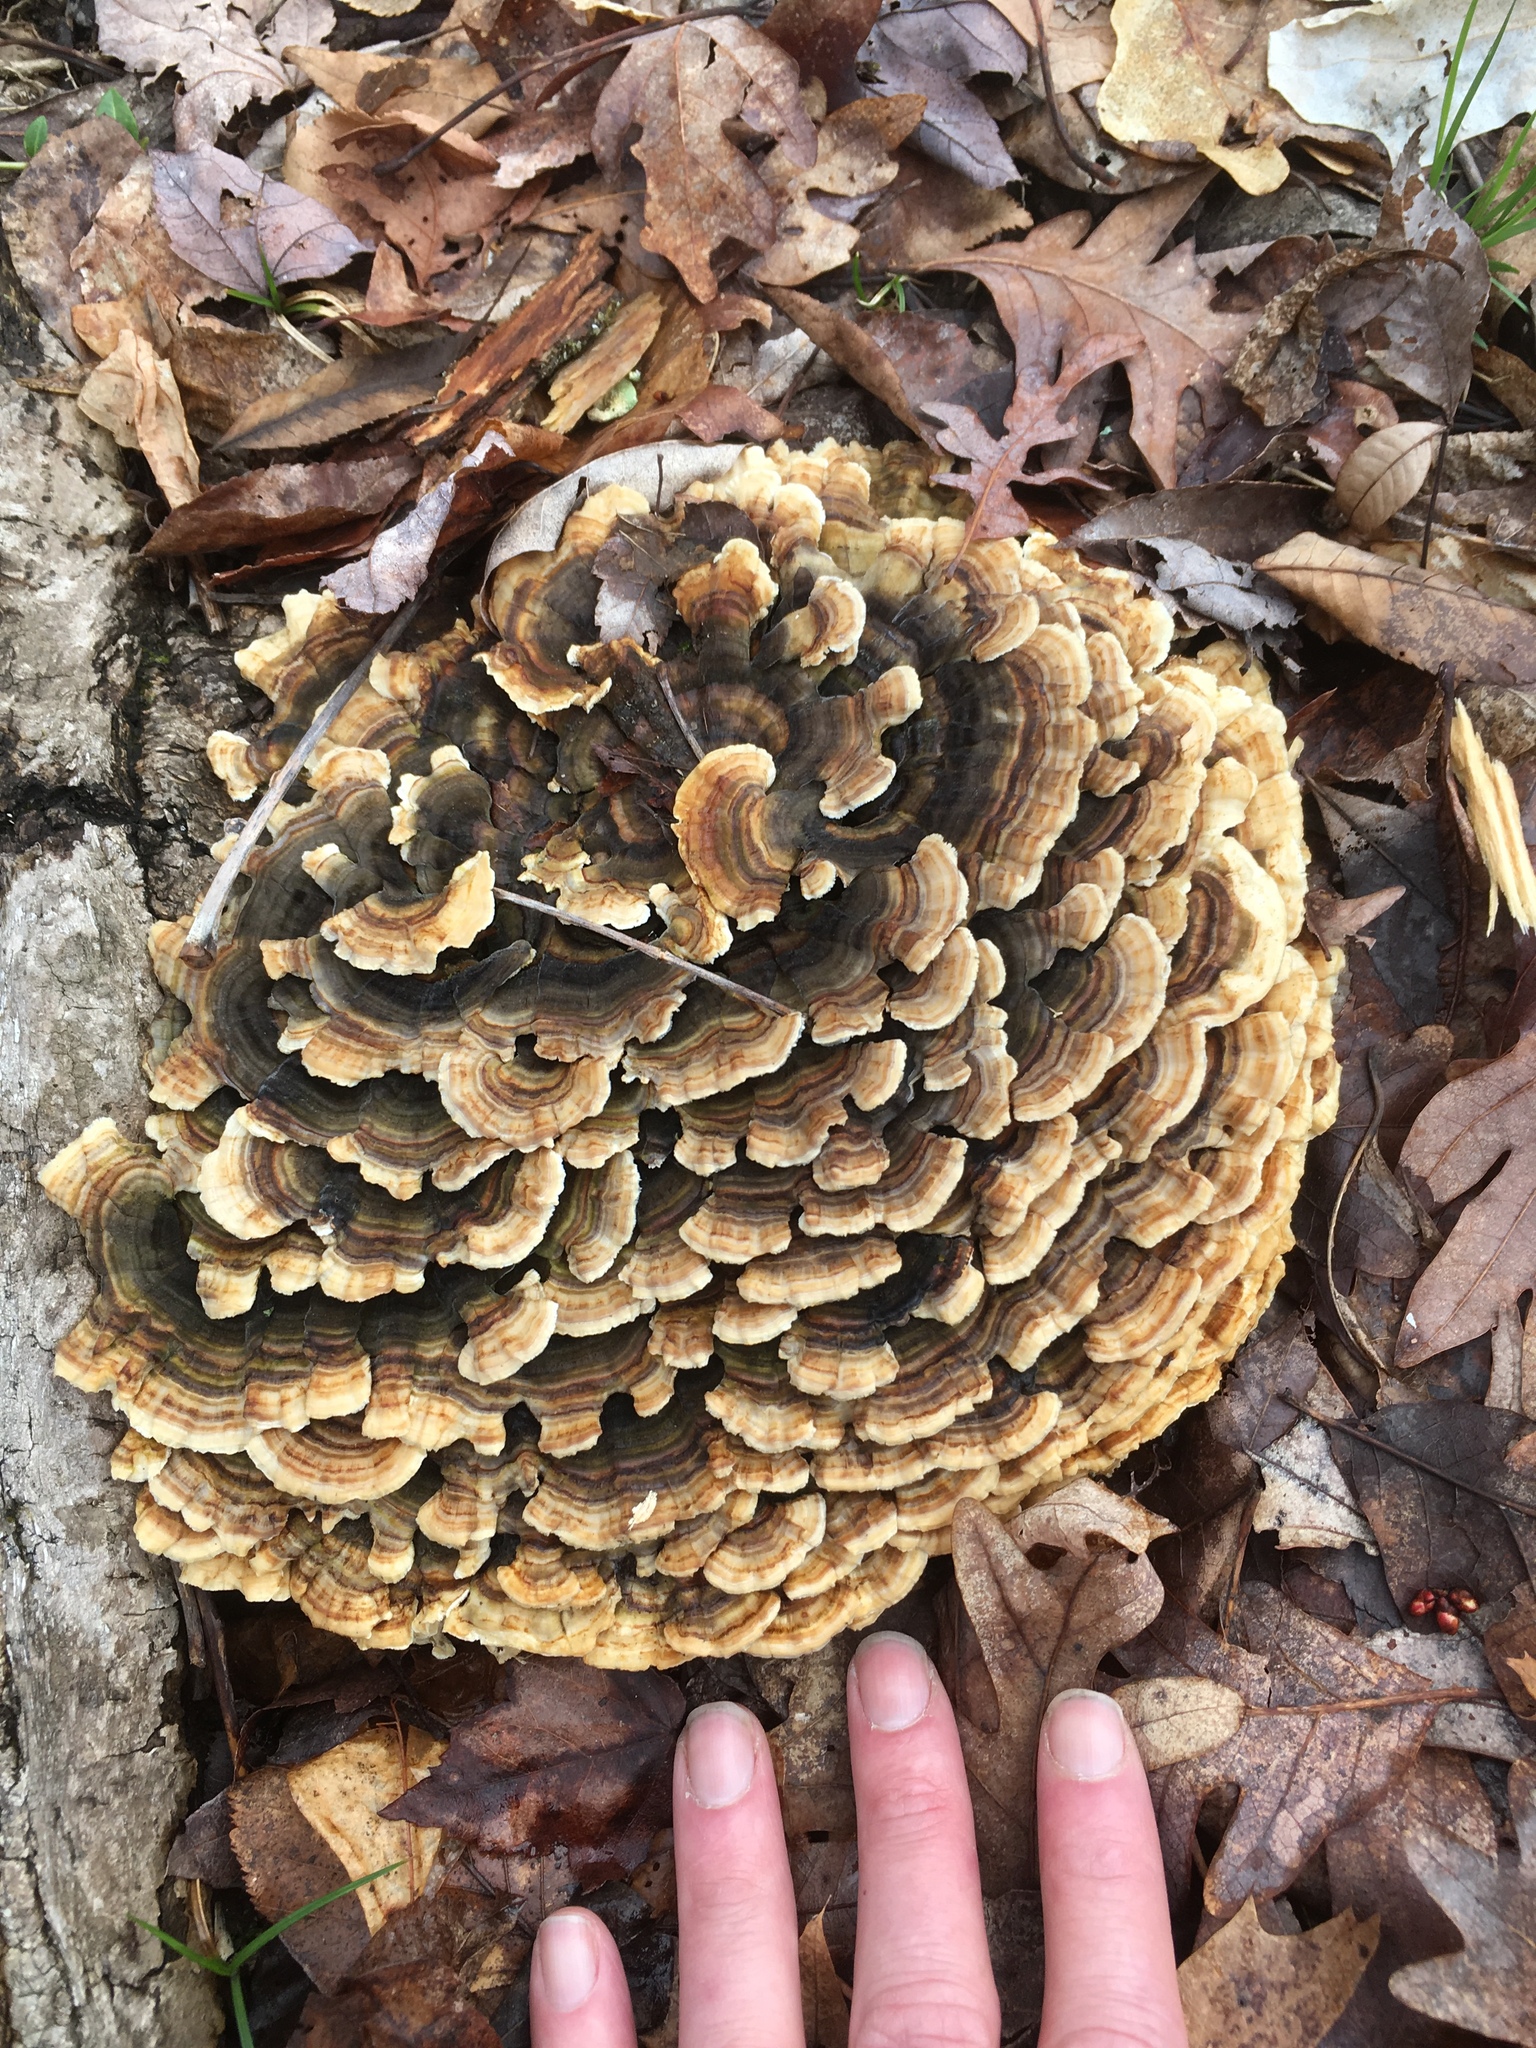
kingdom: Fungi
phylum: Basidiomycota
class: Agaricomycetes
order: Polyporales
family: Polyporaceae
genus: Trametes
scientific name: Trametes versicolor
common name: Turkeytail
